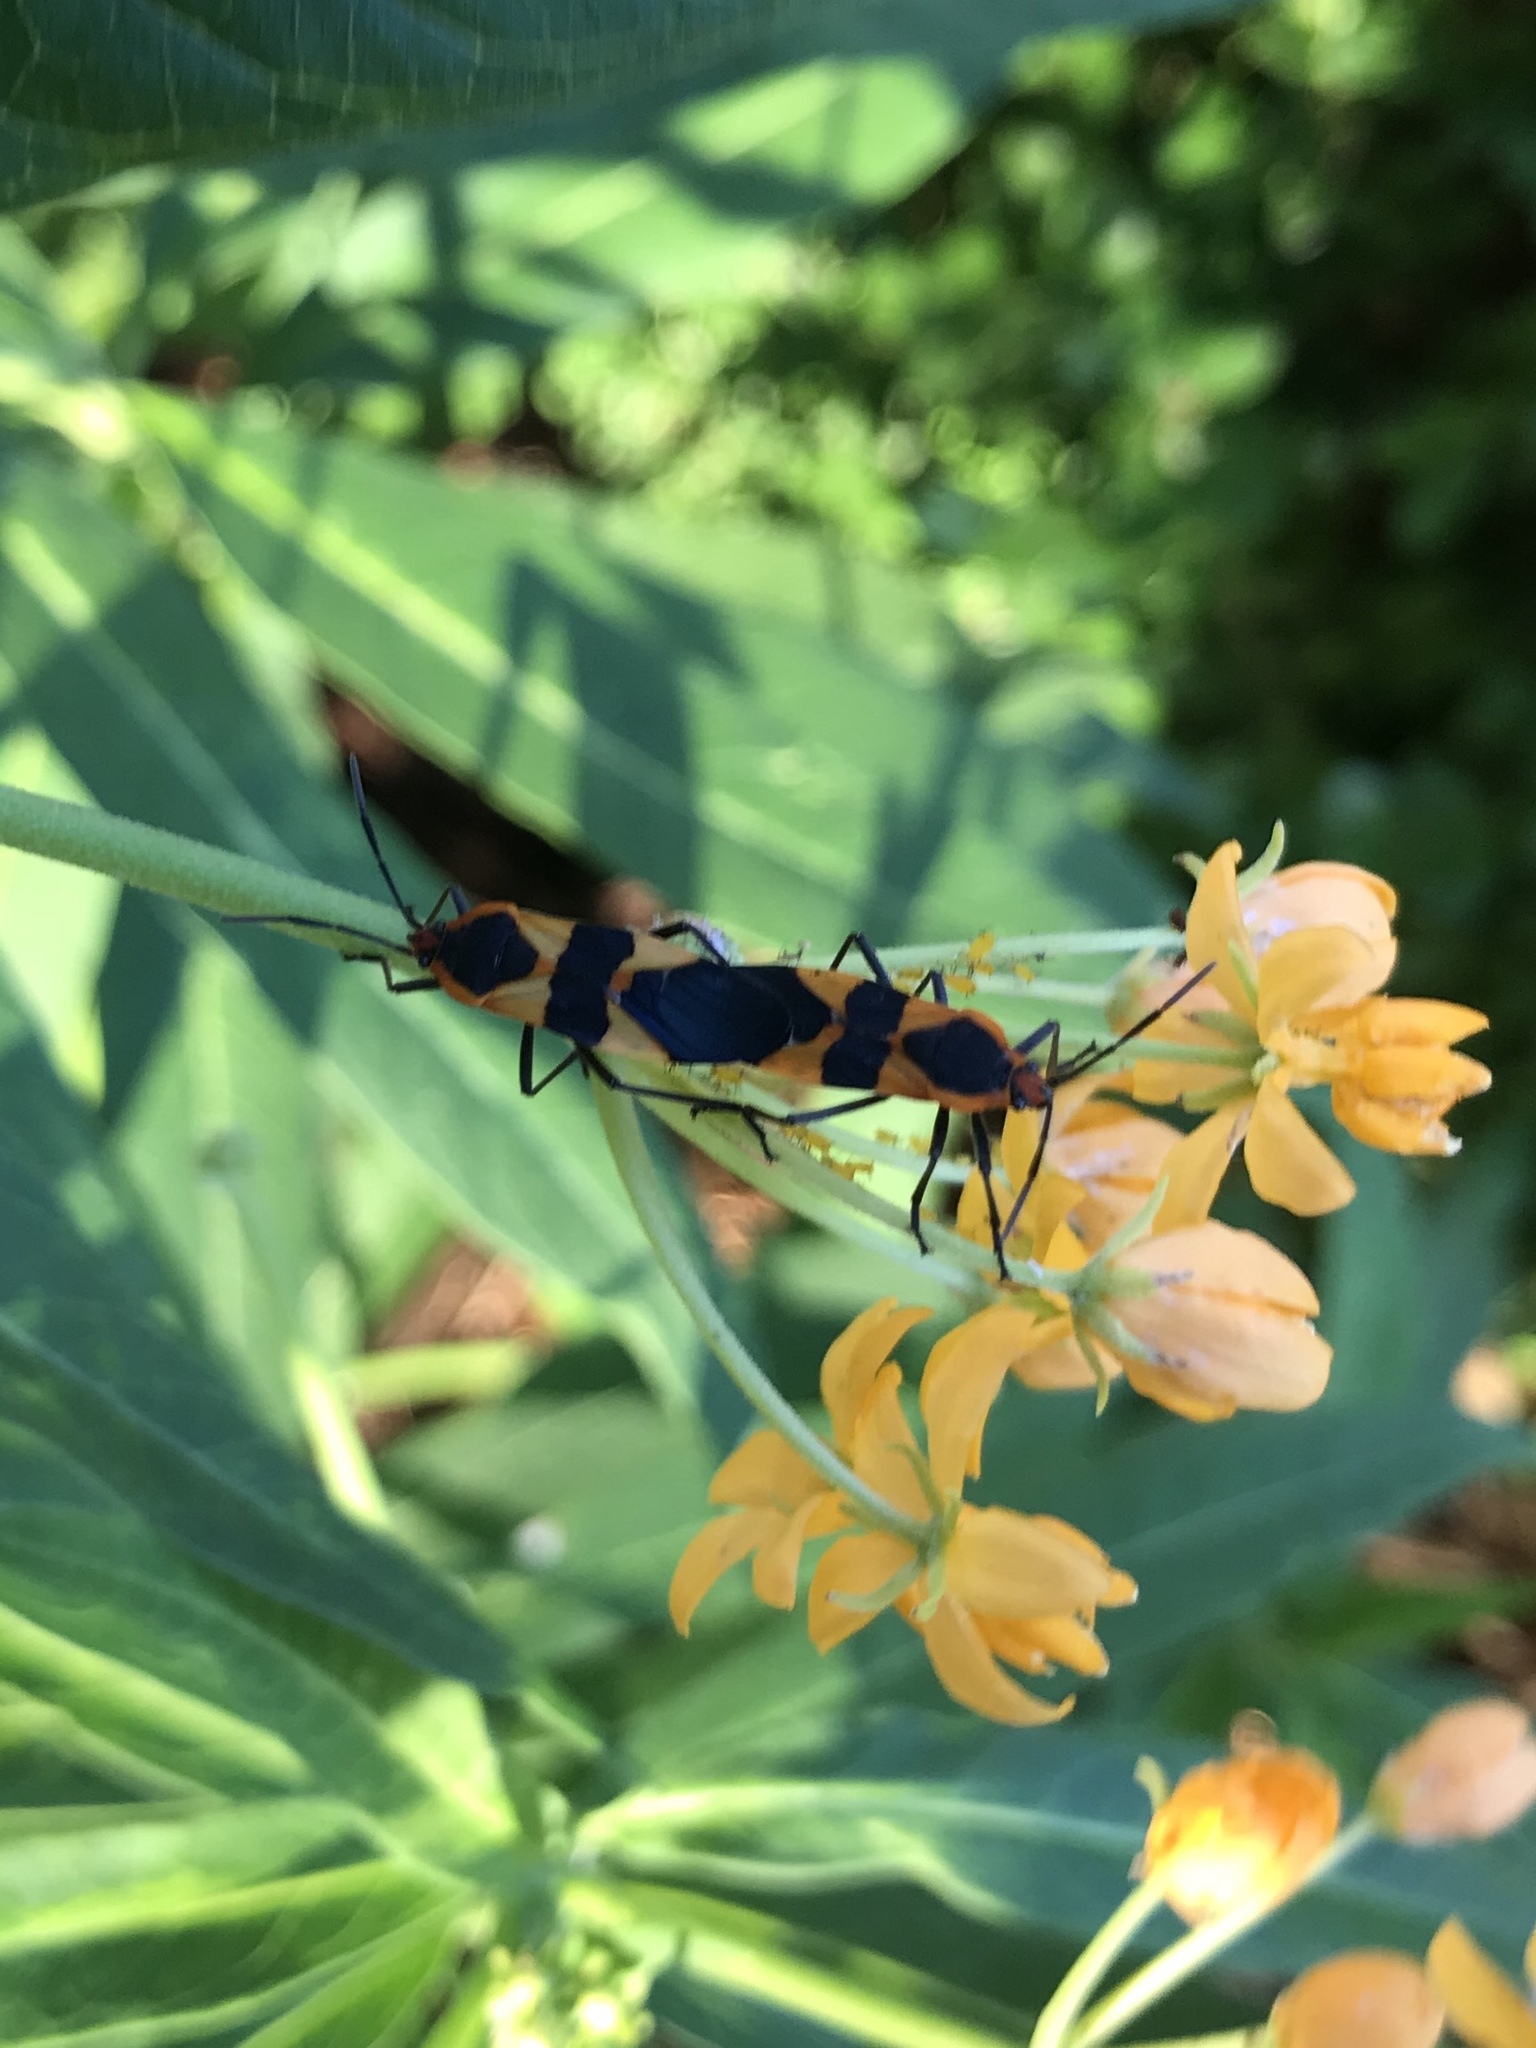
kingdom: Animalia
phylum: Arthropoda
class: Insecta
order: Hemiptera
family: Lygaeidae
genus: Oncopeltus
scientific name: Oncopeltus fasciatus
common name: Large milkweed bug
